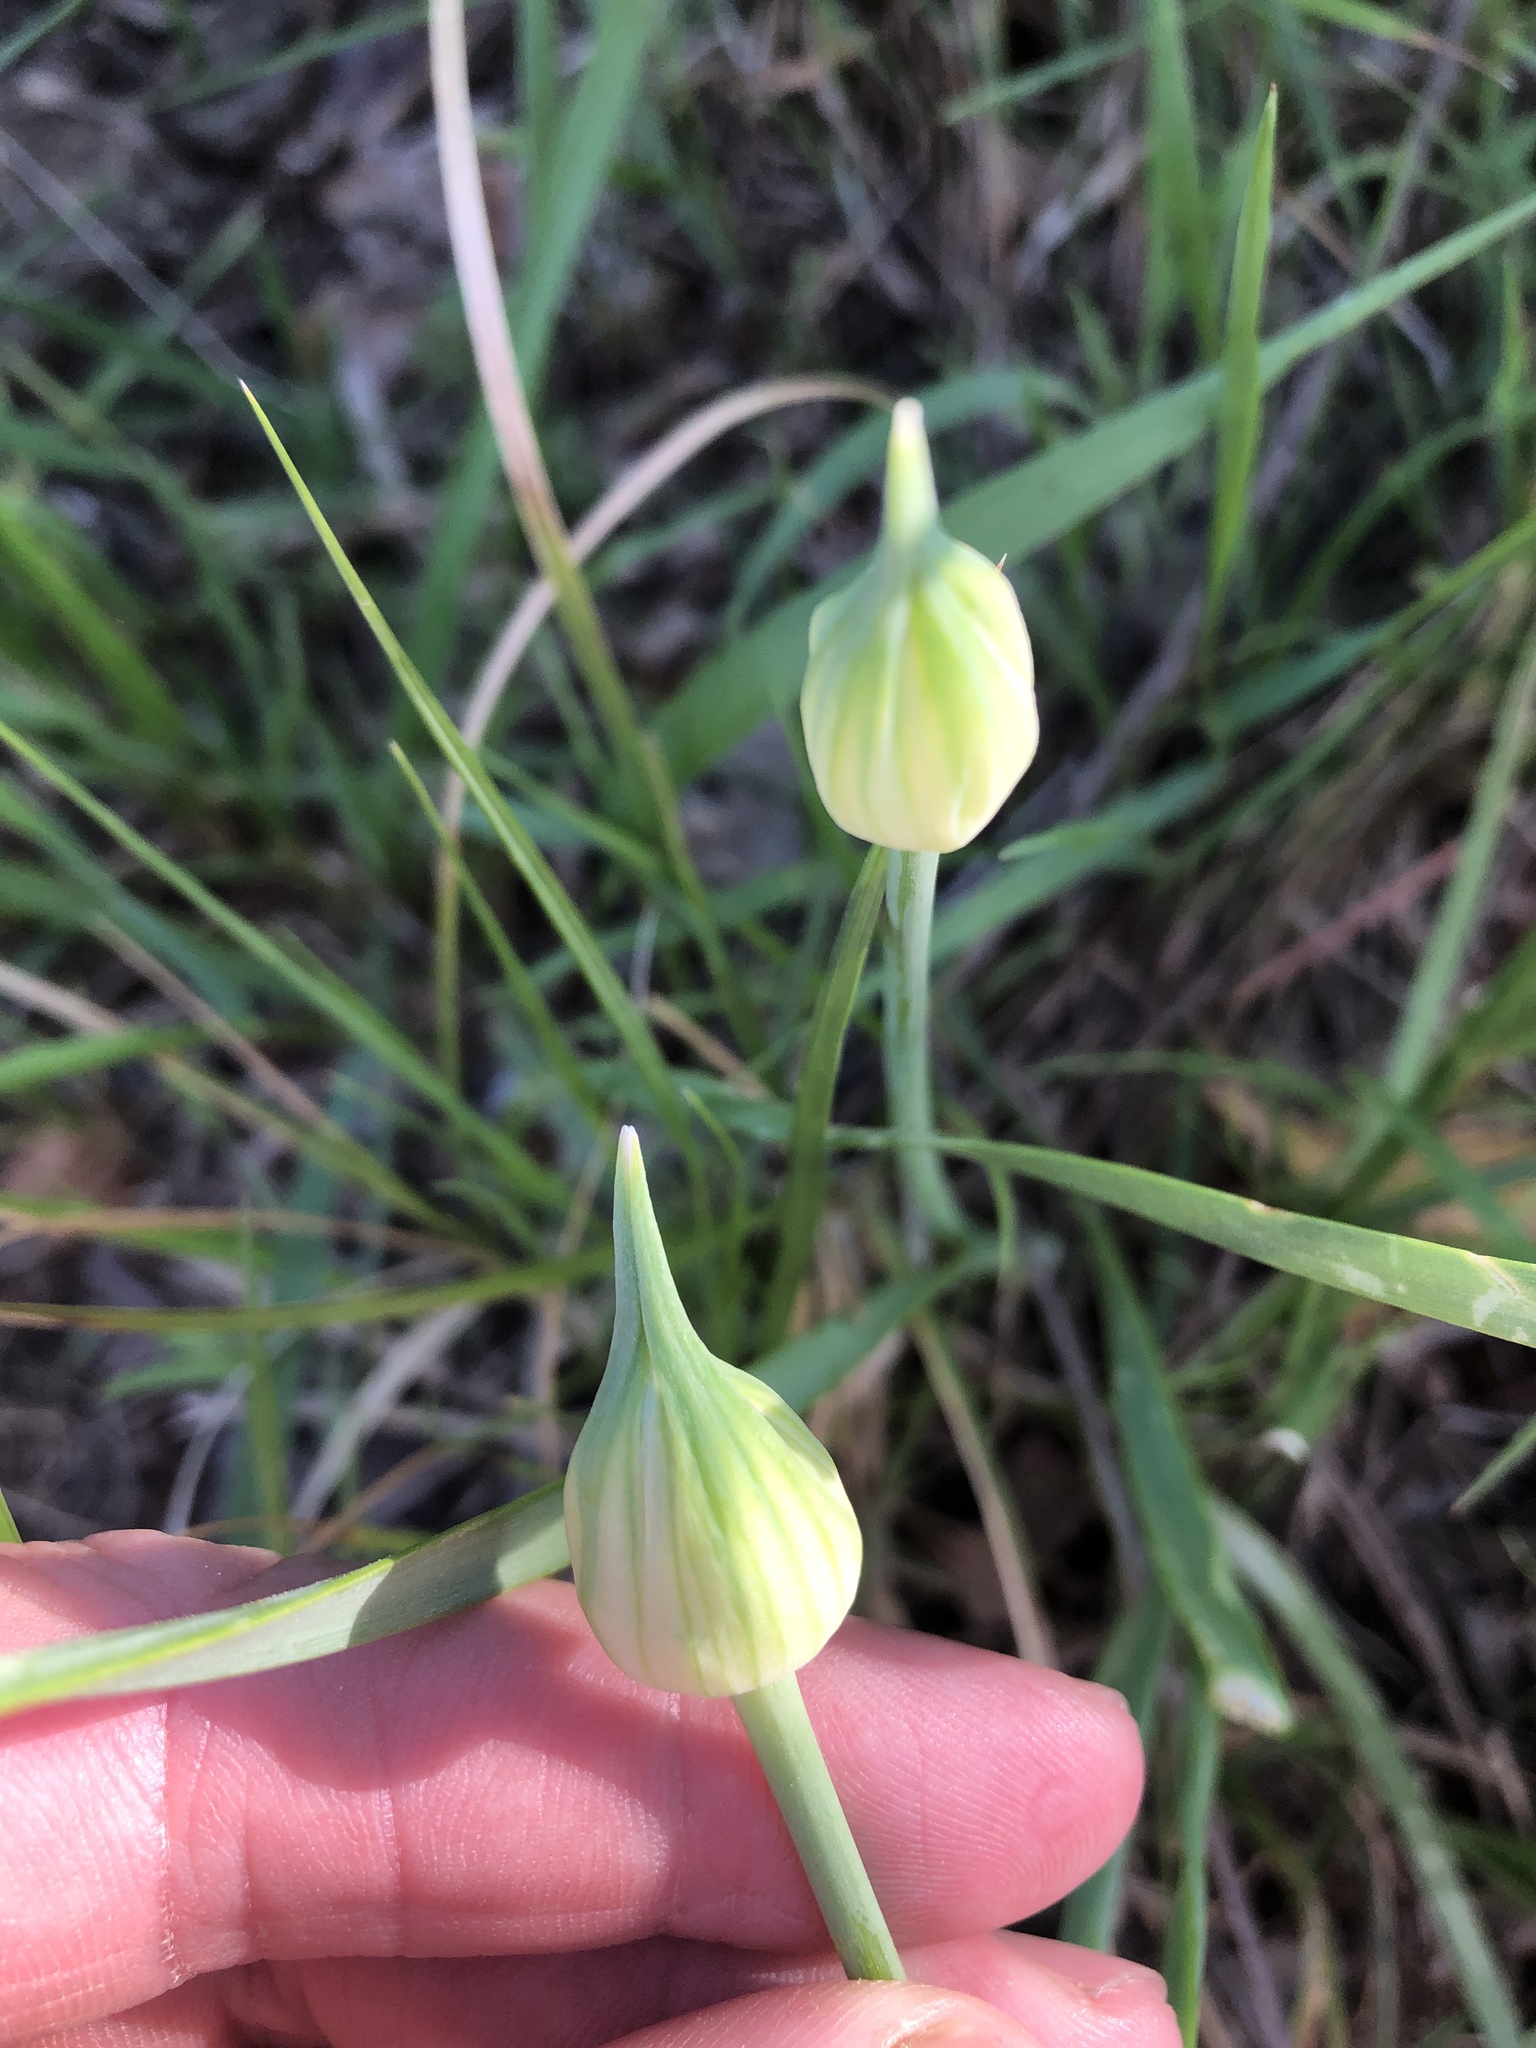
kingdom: Plantae
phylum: Tracheophyta
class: Liliopsida
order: Asparagales
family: Amaryllidaceae
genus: Allium
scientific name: Allium canadense
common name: Meadow garlic
